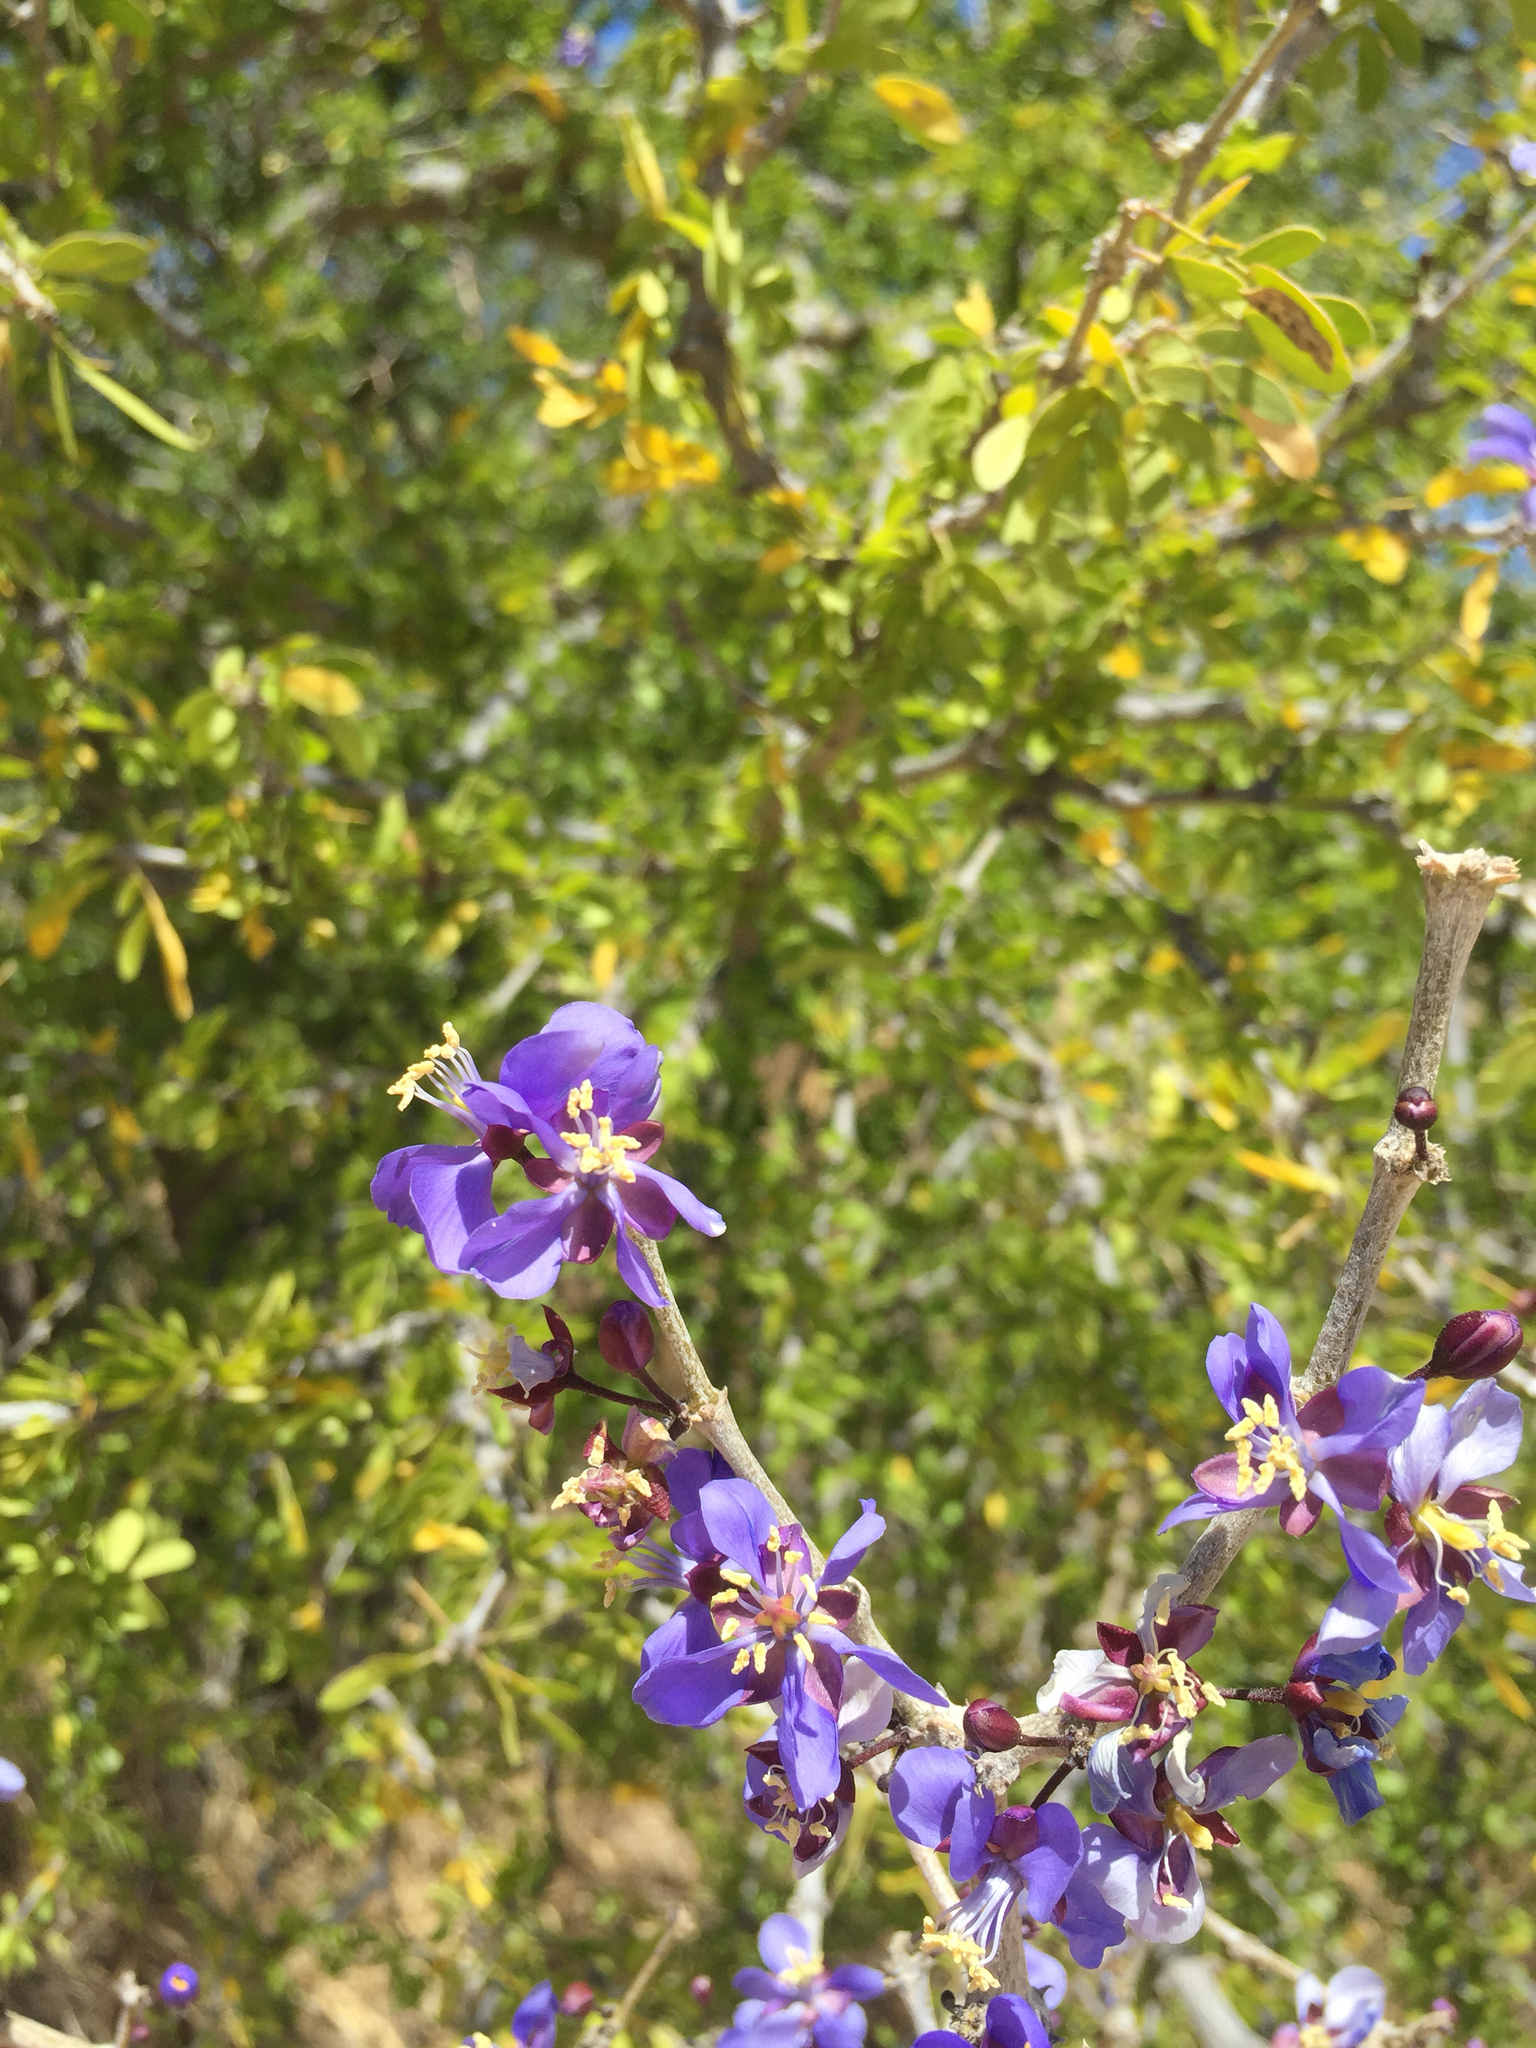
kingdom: Plantae
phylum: Tracheophyta
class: Magnoliopsida
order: Zygophyllales
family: Zygophyllaceae
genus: Guaiacum
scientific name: Guaiacum coulteri
